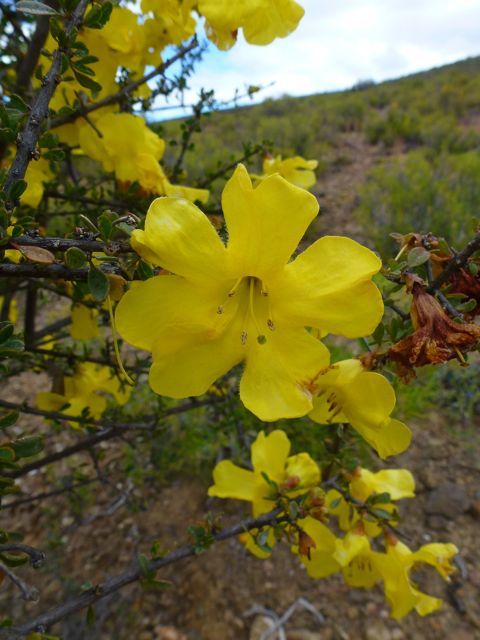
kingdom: Plantae
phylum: Tracheophyta
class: Magnoliopsida
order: Lamiales
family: Bignoniaceae
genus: Rhigozum
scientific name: Rhigozum obovatum
